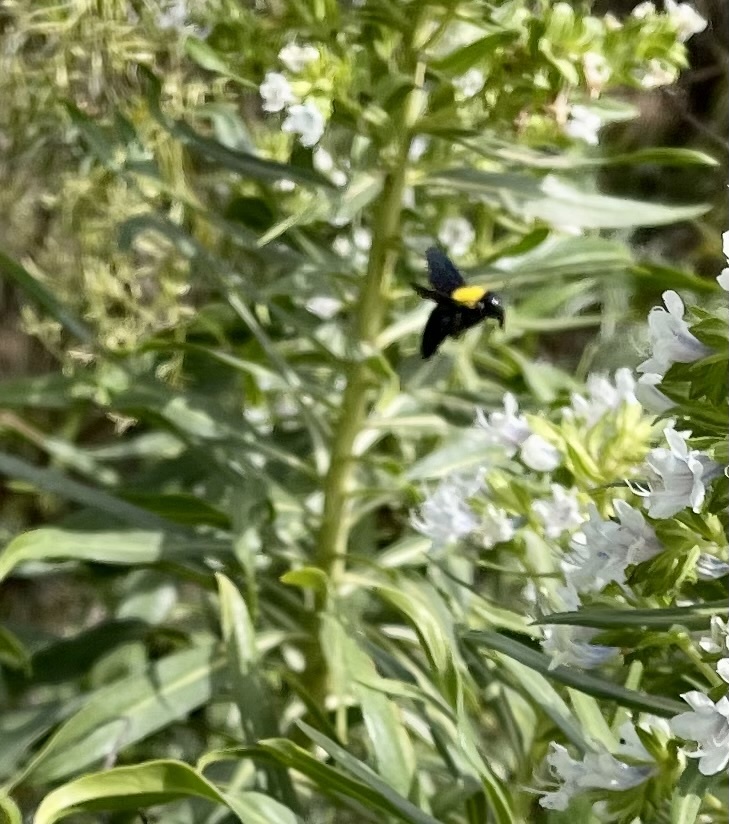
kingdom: Animalia
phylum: Arthropoda
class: Insecta
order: Hymenoptera
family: Apidae
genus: Xylocopa
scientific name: Xylocopa pubescens
